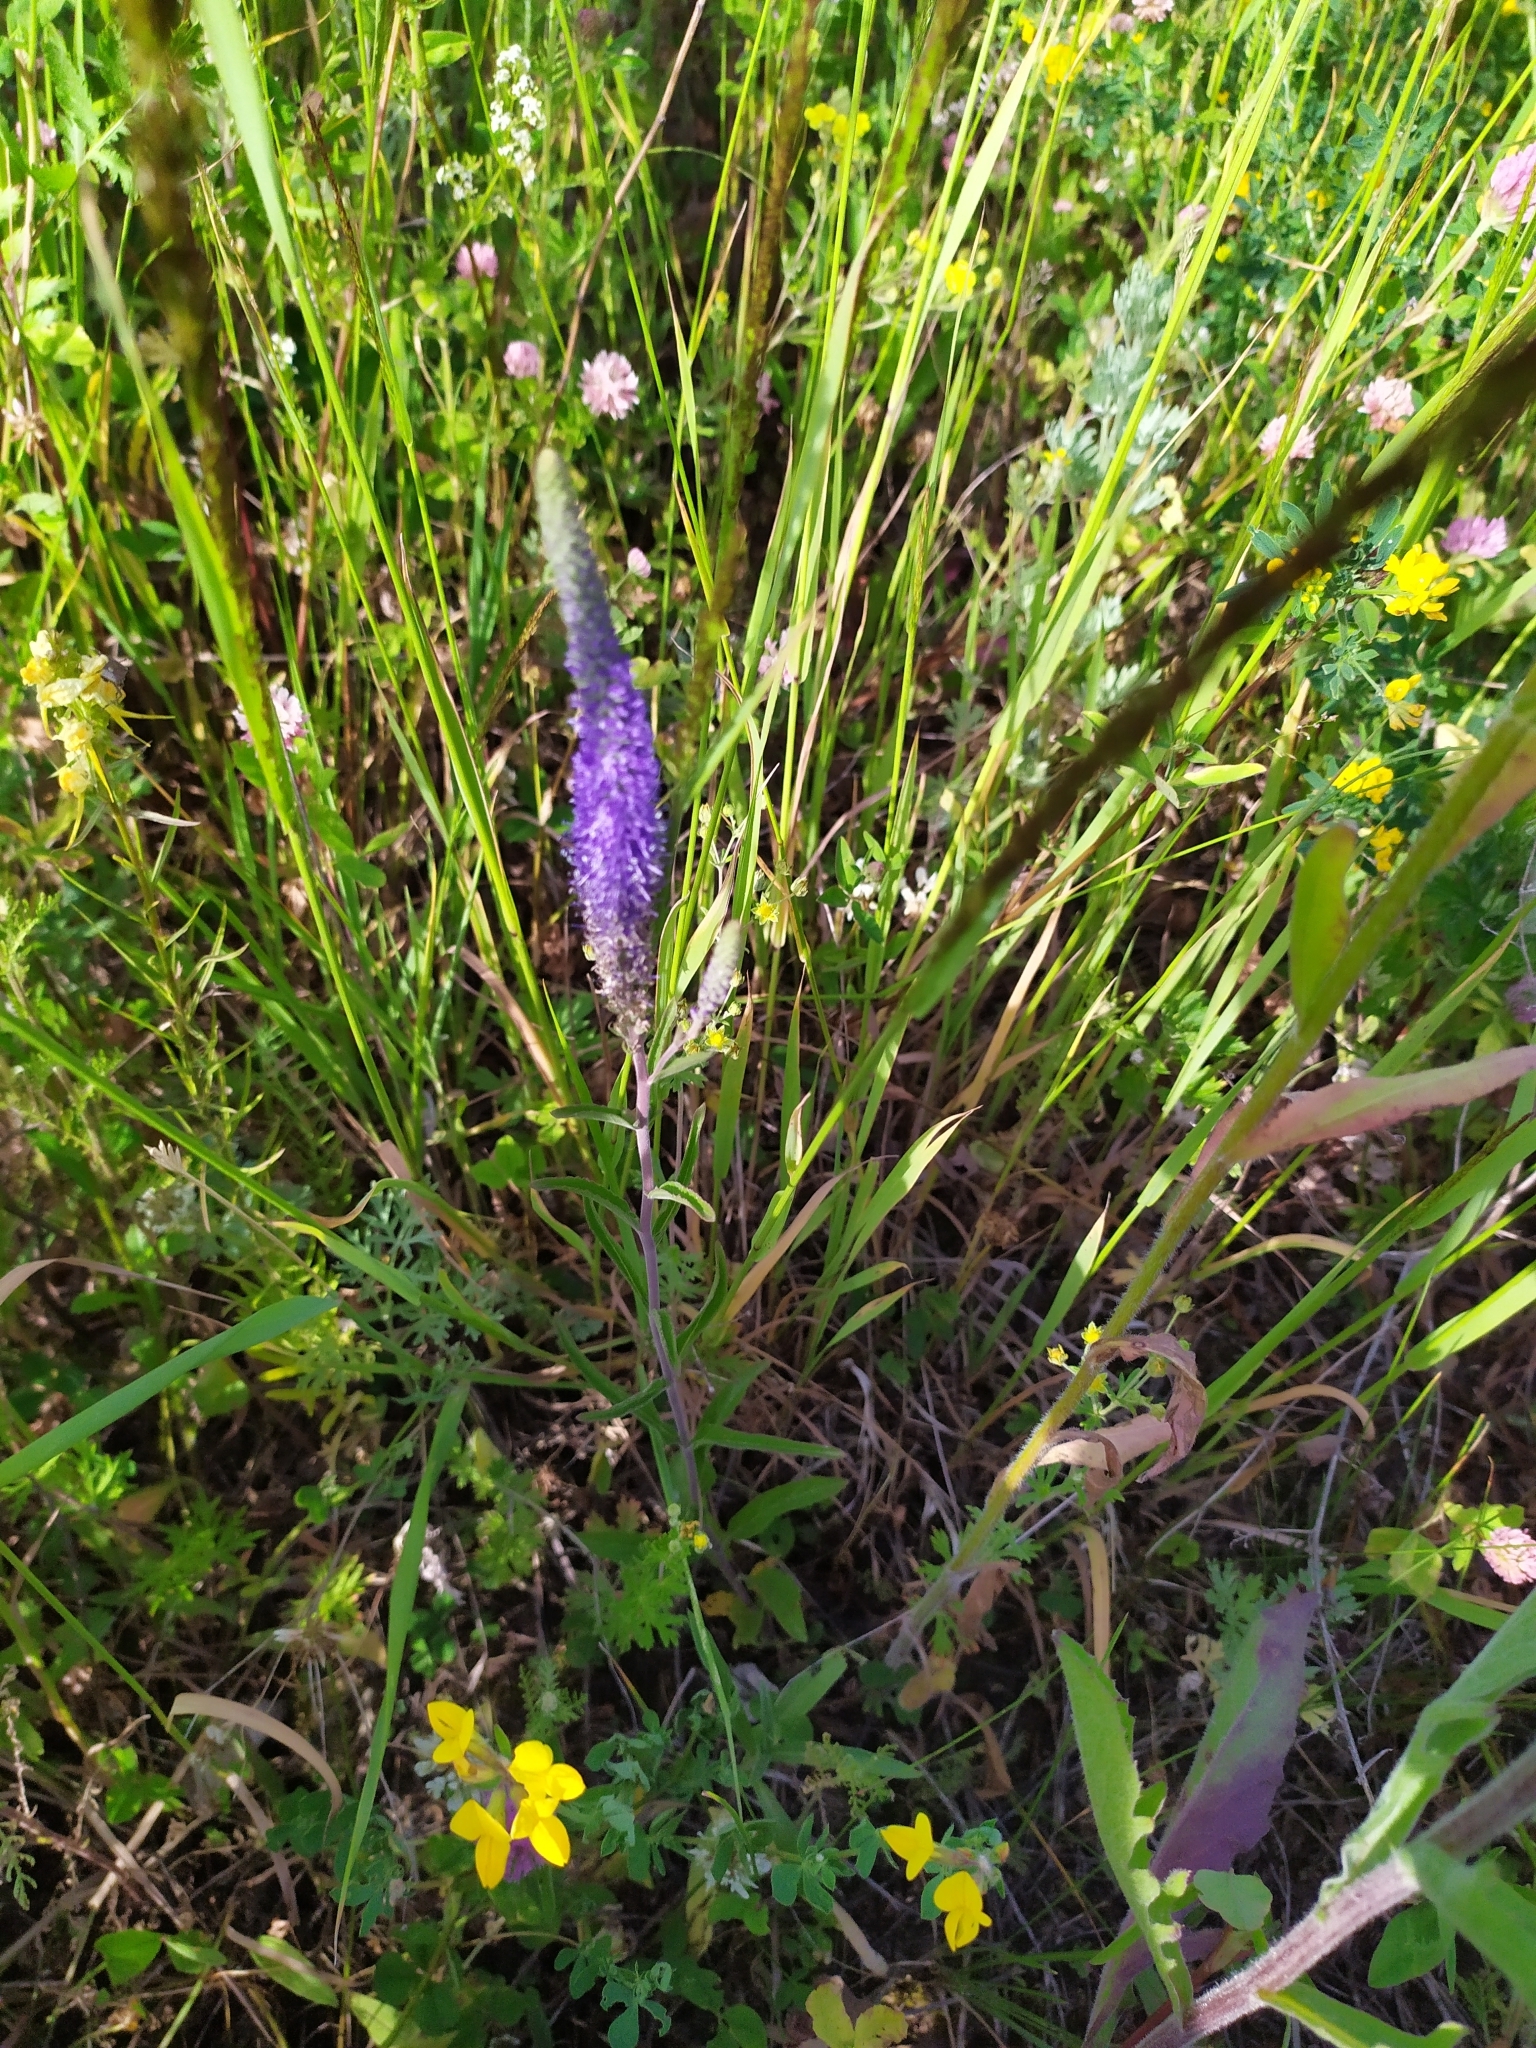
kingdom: Plantae
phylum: Tracheophyta
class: Magnoliopsida
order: Lamiales
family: Plantaginaceae
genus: Veronica
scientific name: Veronica spicata
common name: Spiked speedwell
